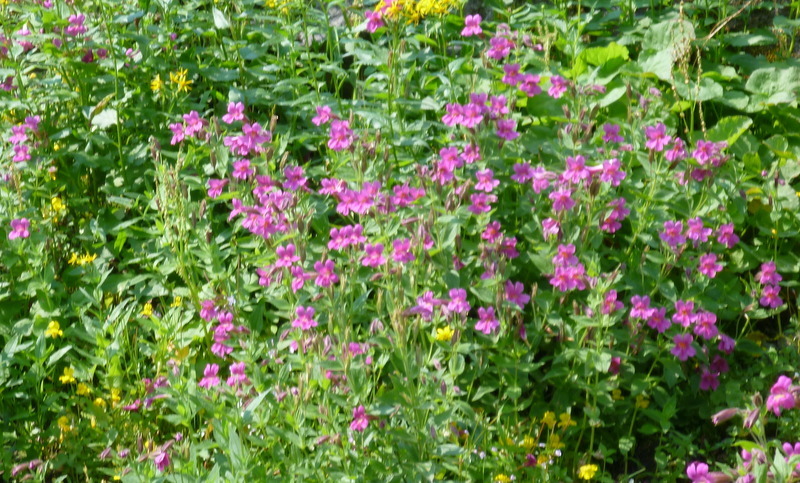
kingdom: Plantae
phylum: Tracheophyta
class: Magnoliopsida
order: Lamiales
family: Phrymaceae
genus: Erythranthe
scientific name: Erythranthe lewisii
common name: Lewis's monkey-flower
